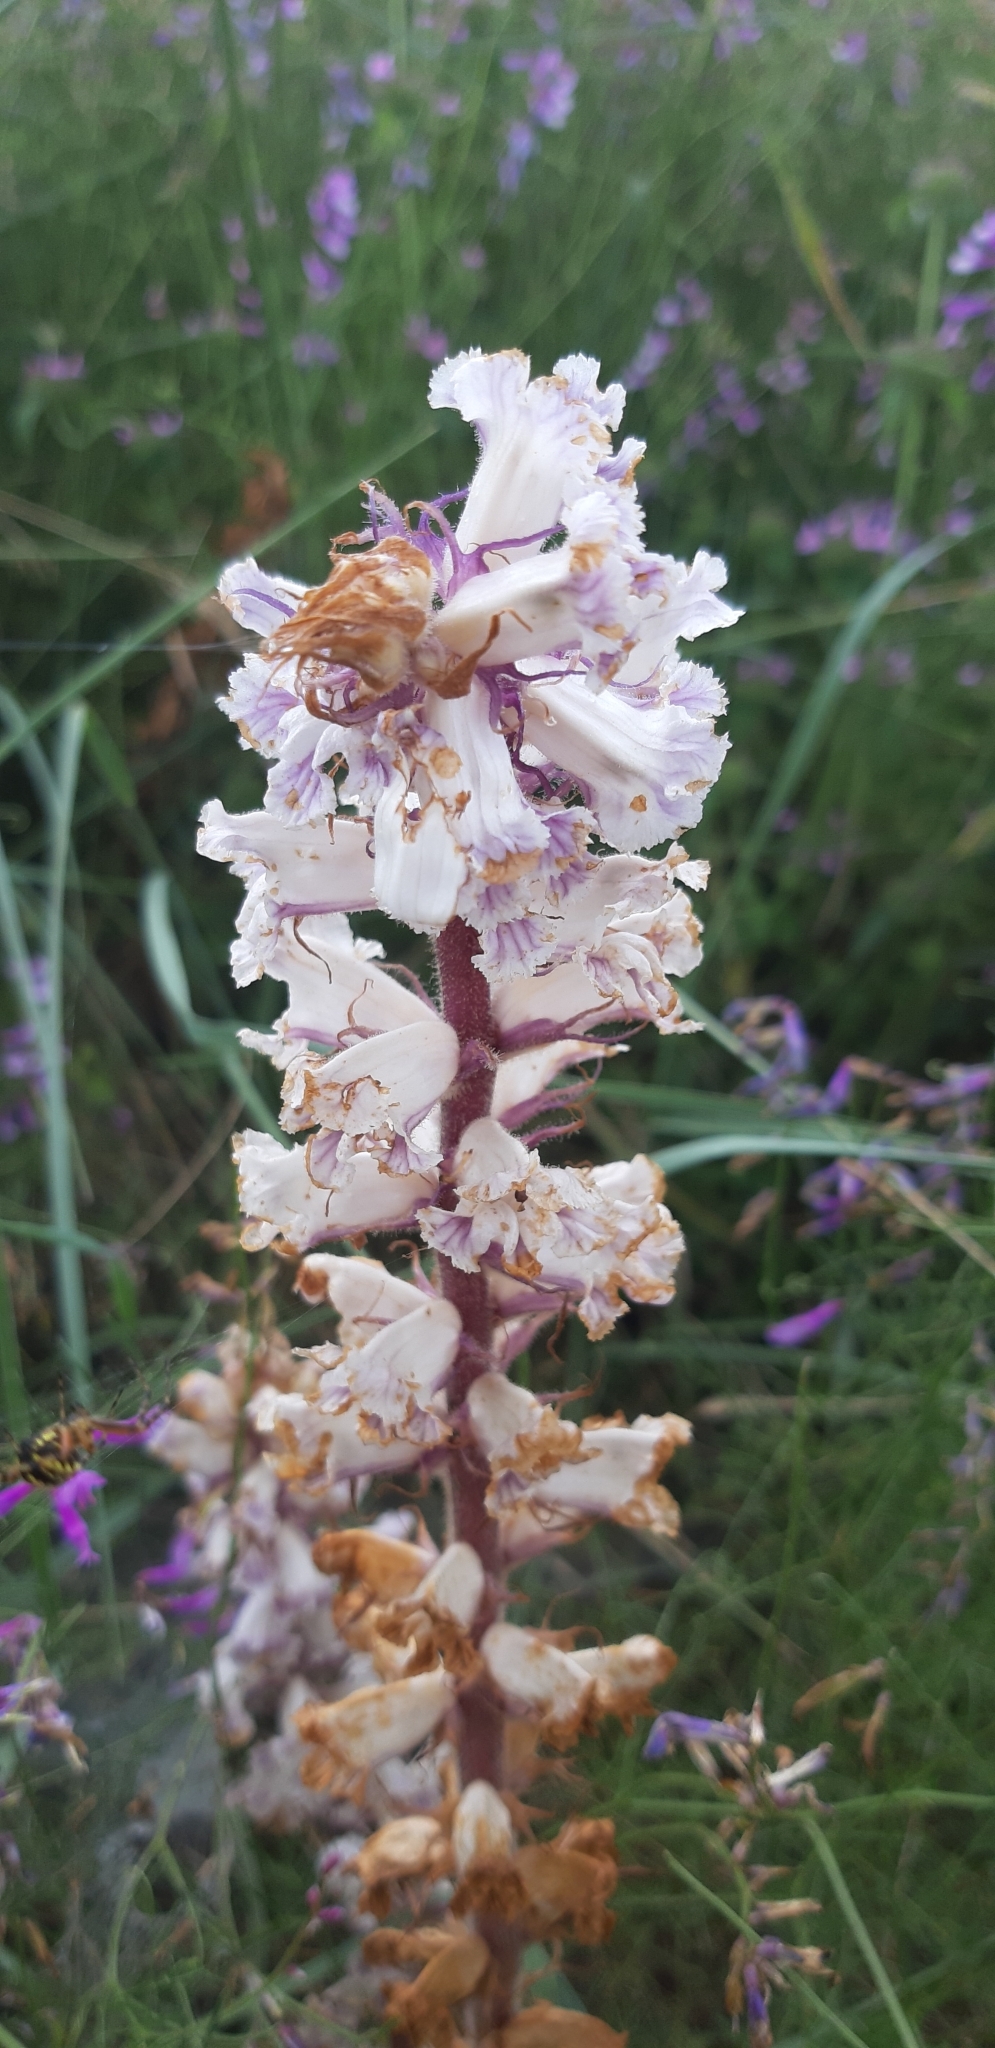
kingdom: Plantae
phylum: Tracheophyta
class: Magnoliopsida
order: Lamiales
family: Orobanchaceae
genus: Orobanche
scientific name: Orobanche crenata
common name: Bean broomrape
